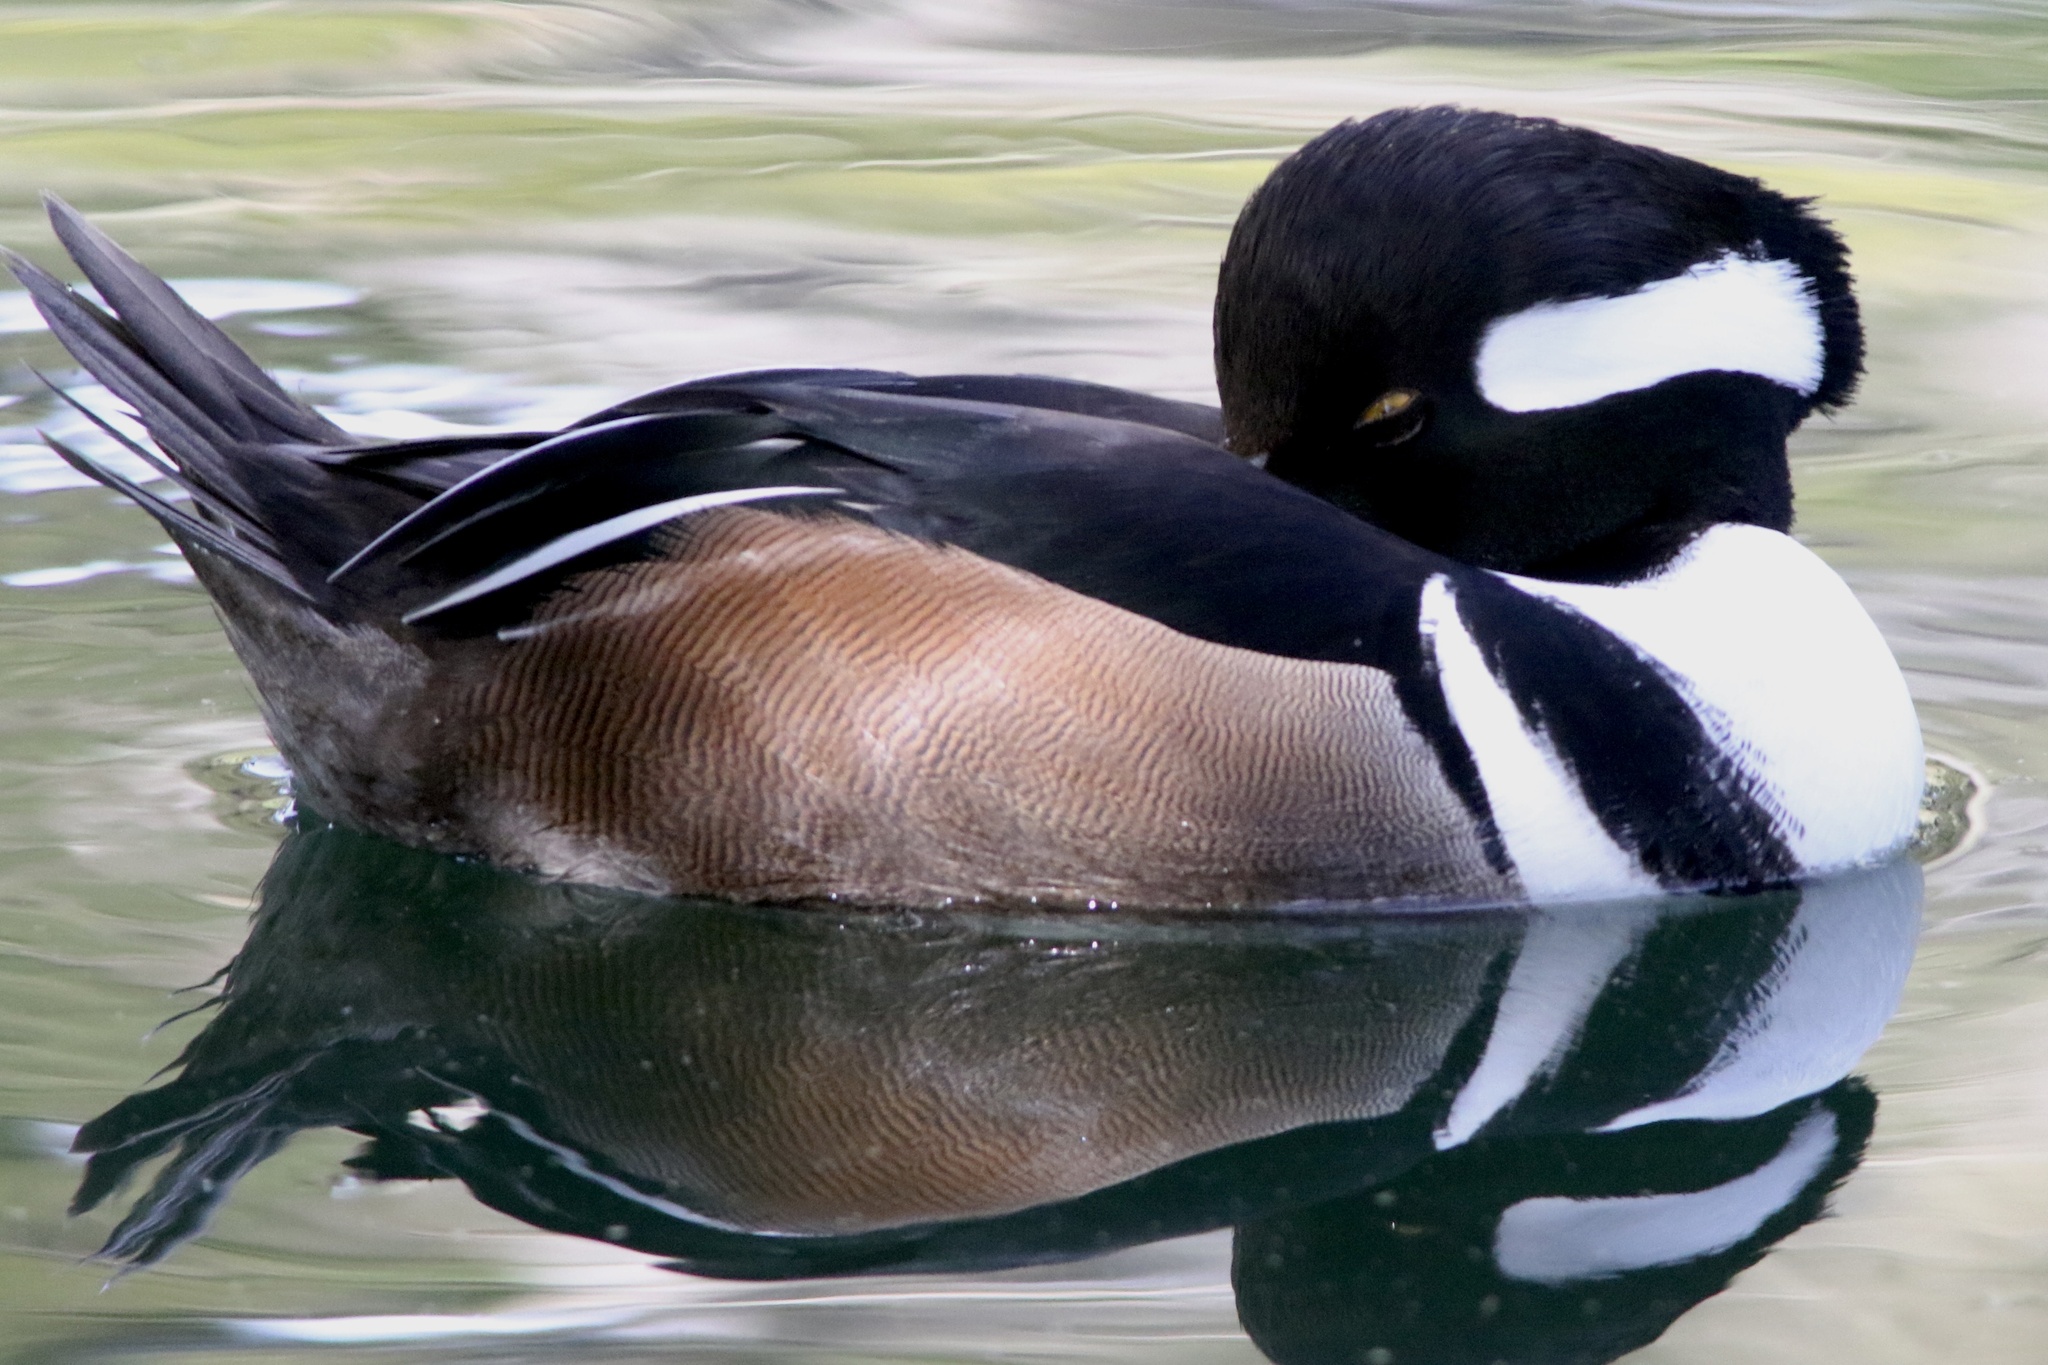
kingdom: Animalia
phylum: Chordata
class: Aves
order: Anseriformes
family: Anatidae
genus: Lophodytes
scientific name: Lophodytes cucullatus
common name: Hooded merganser
